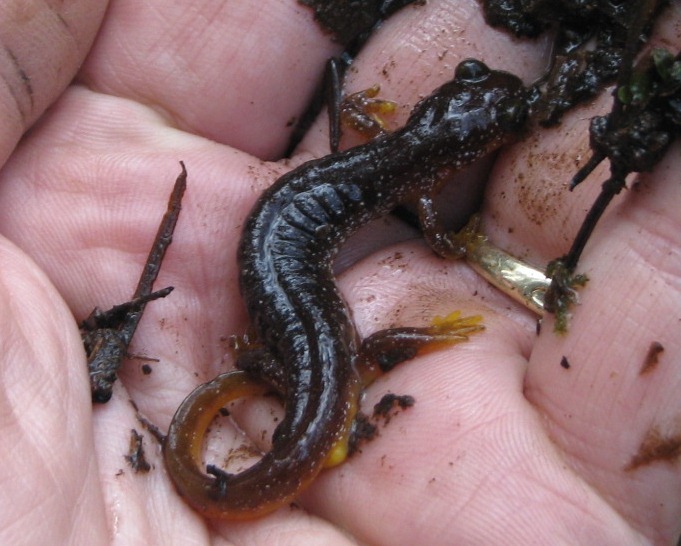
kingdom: Animalia
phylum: Chordata
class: Amphibia
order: Caudata
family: Rhyacotritonidae
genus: Rhyacotriton
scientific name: Rhyacotriton kezeri
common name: Columbia torrent salamander
